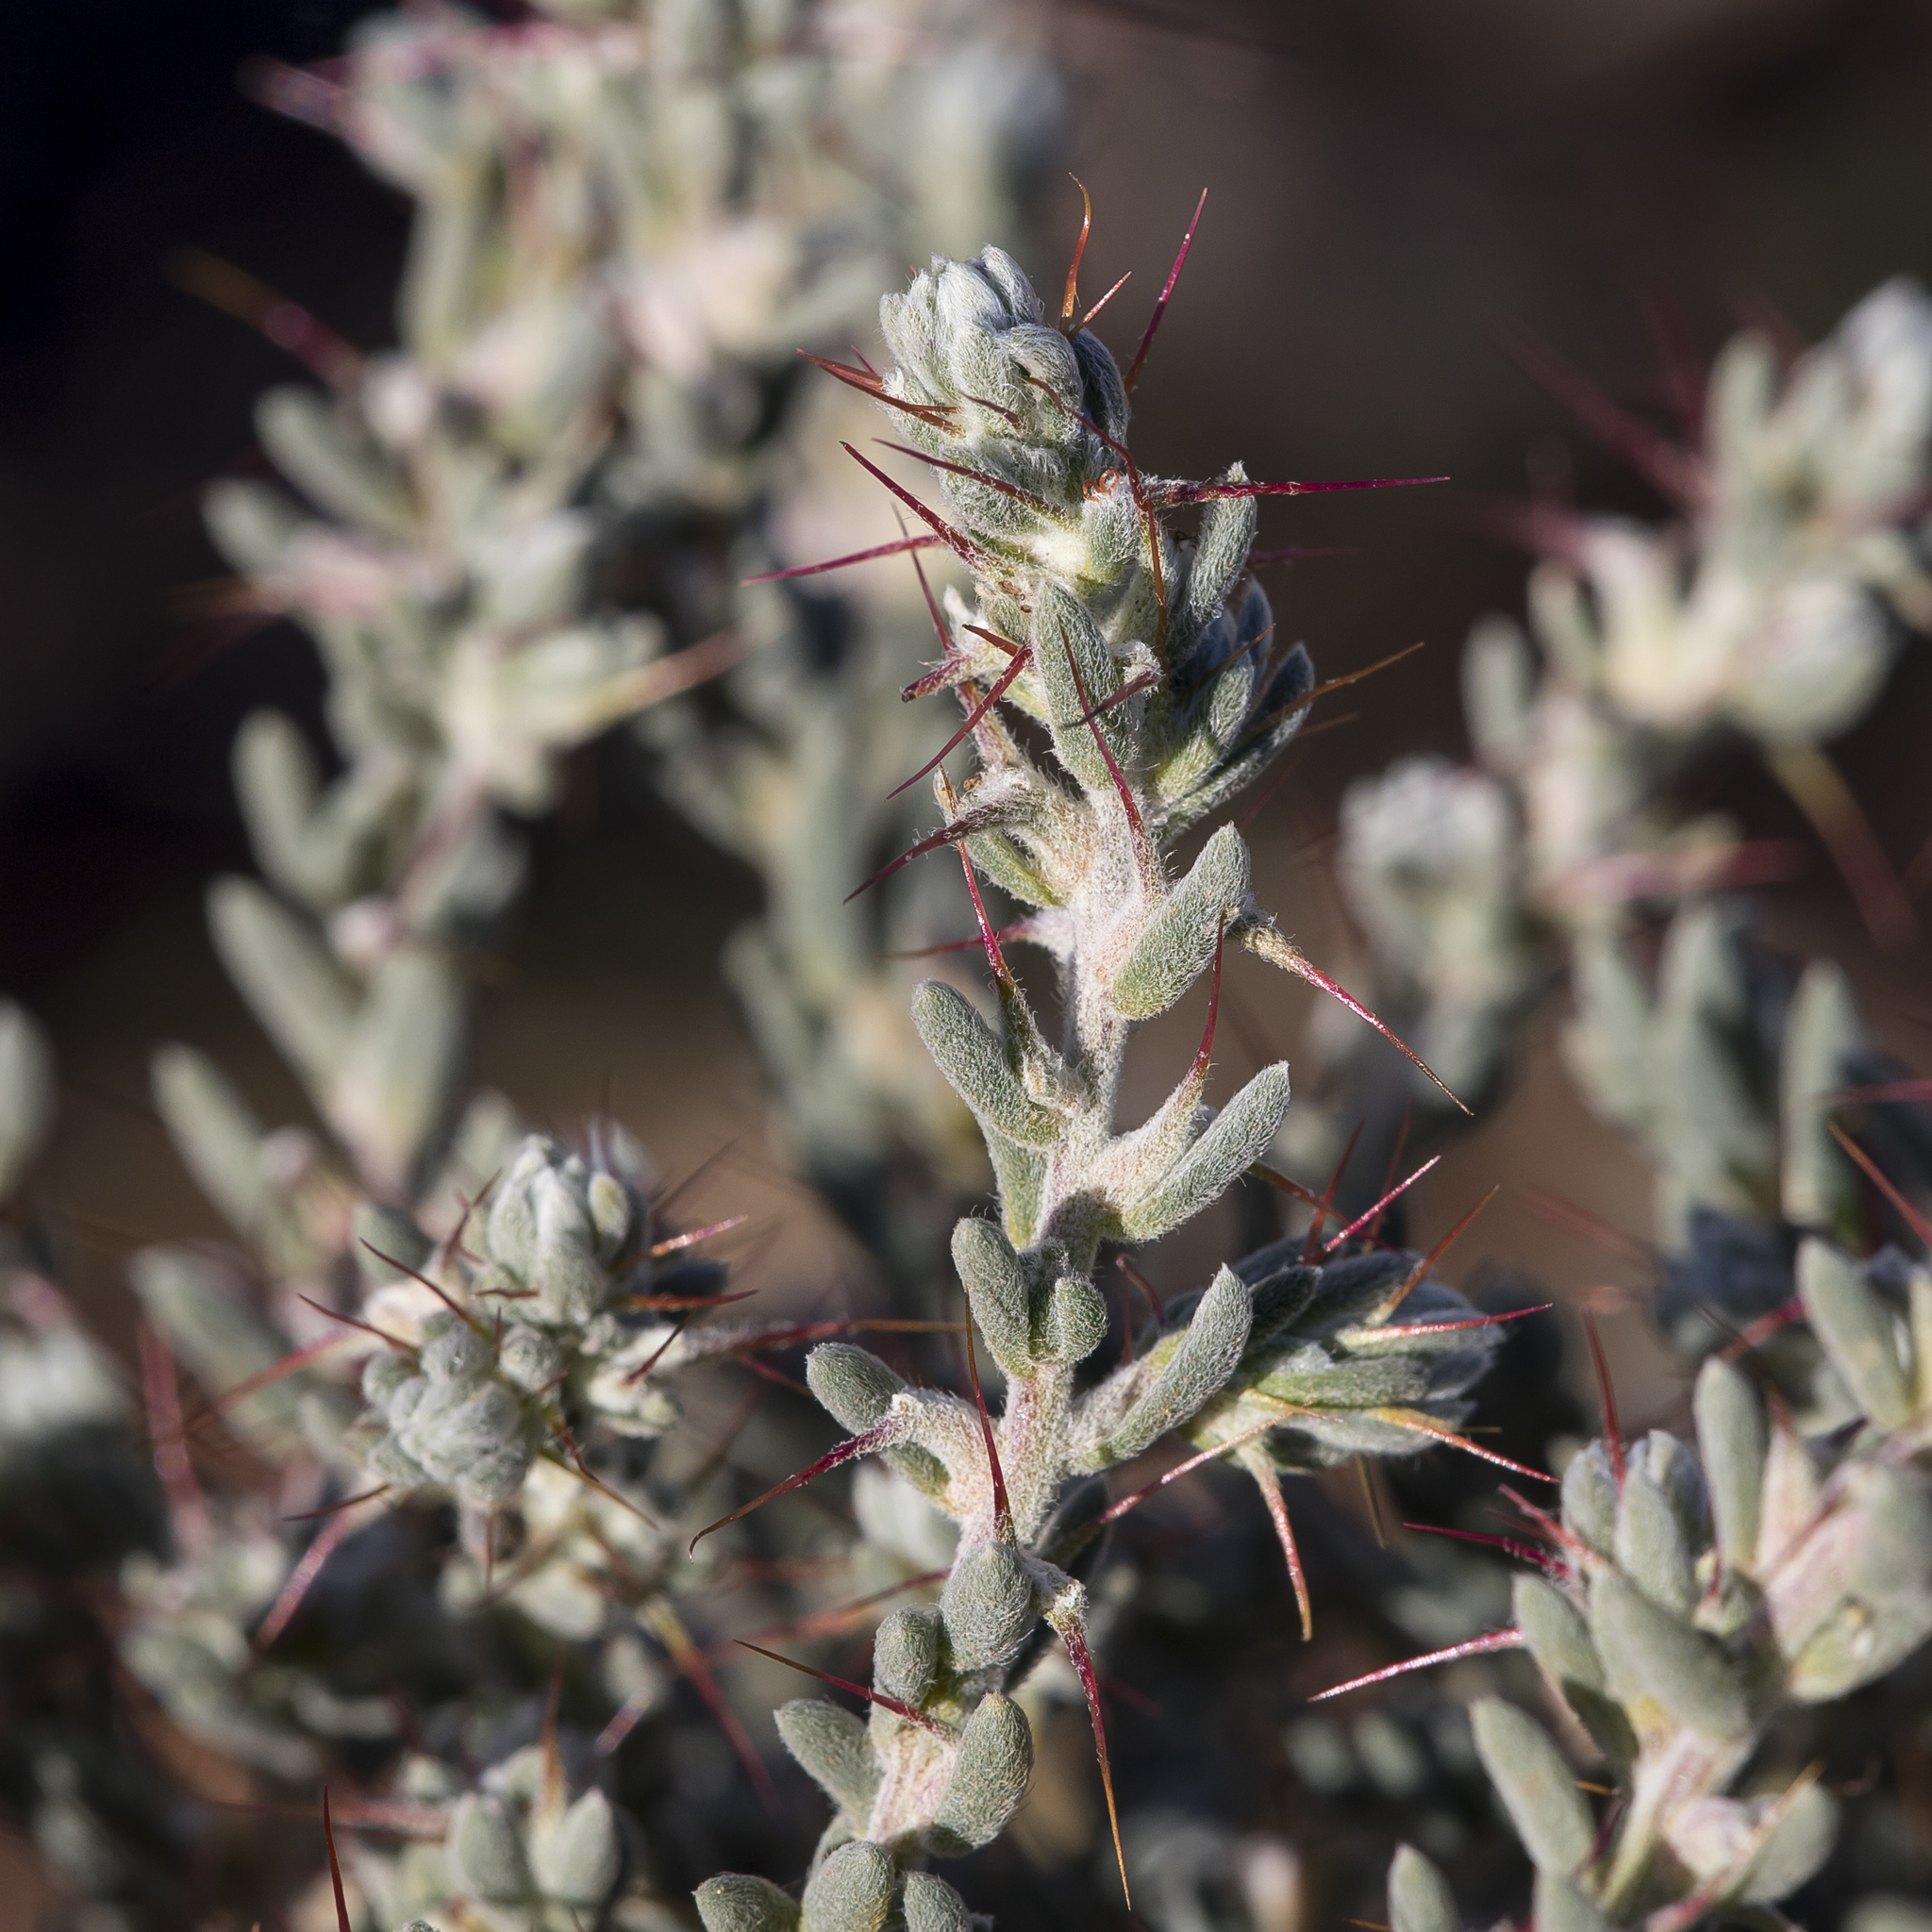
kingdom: Plantae
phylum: Tracheophyta
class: Magnoliopsida
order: Caryophyllales
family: Amaranthaceae
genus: Sclerolaena
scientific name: Sclerolaena obliquicuspis
